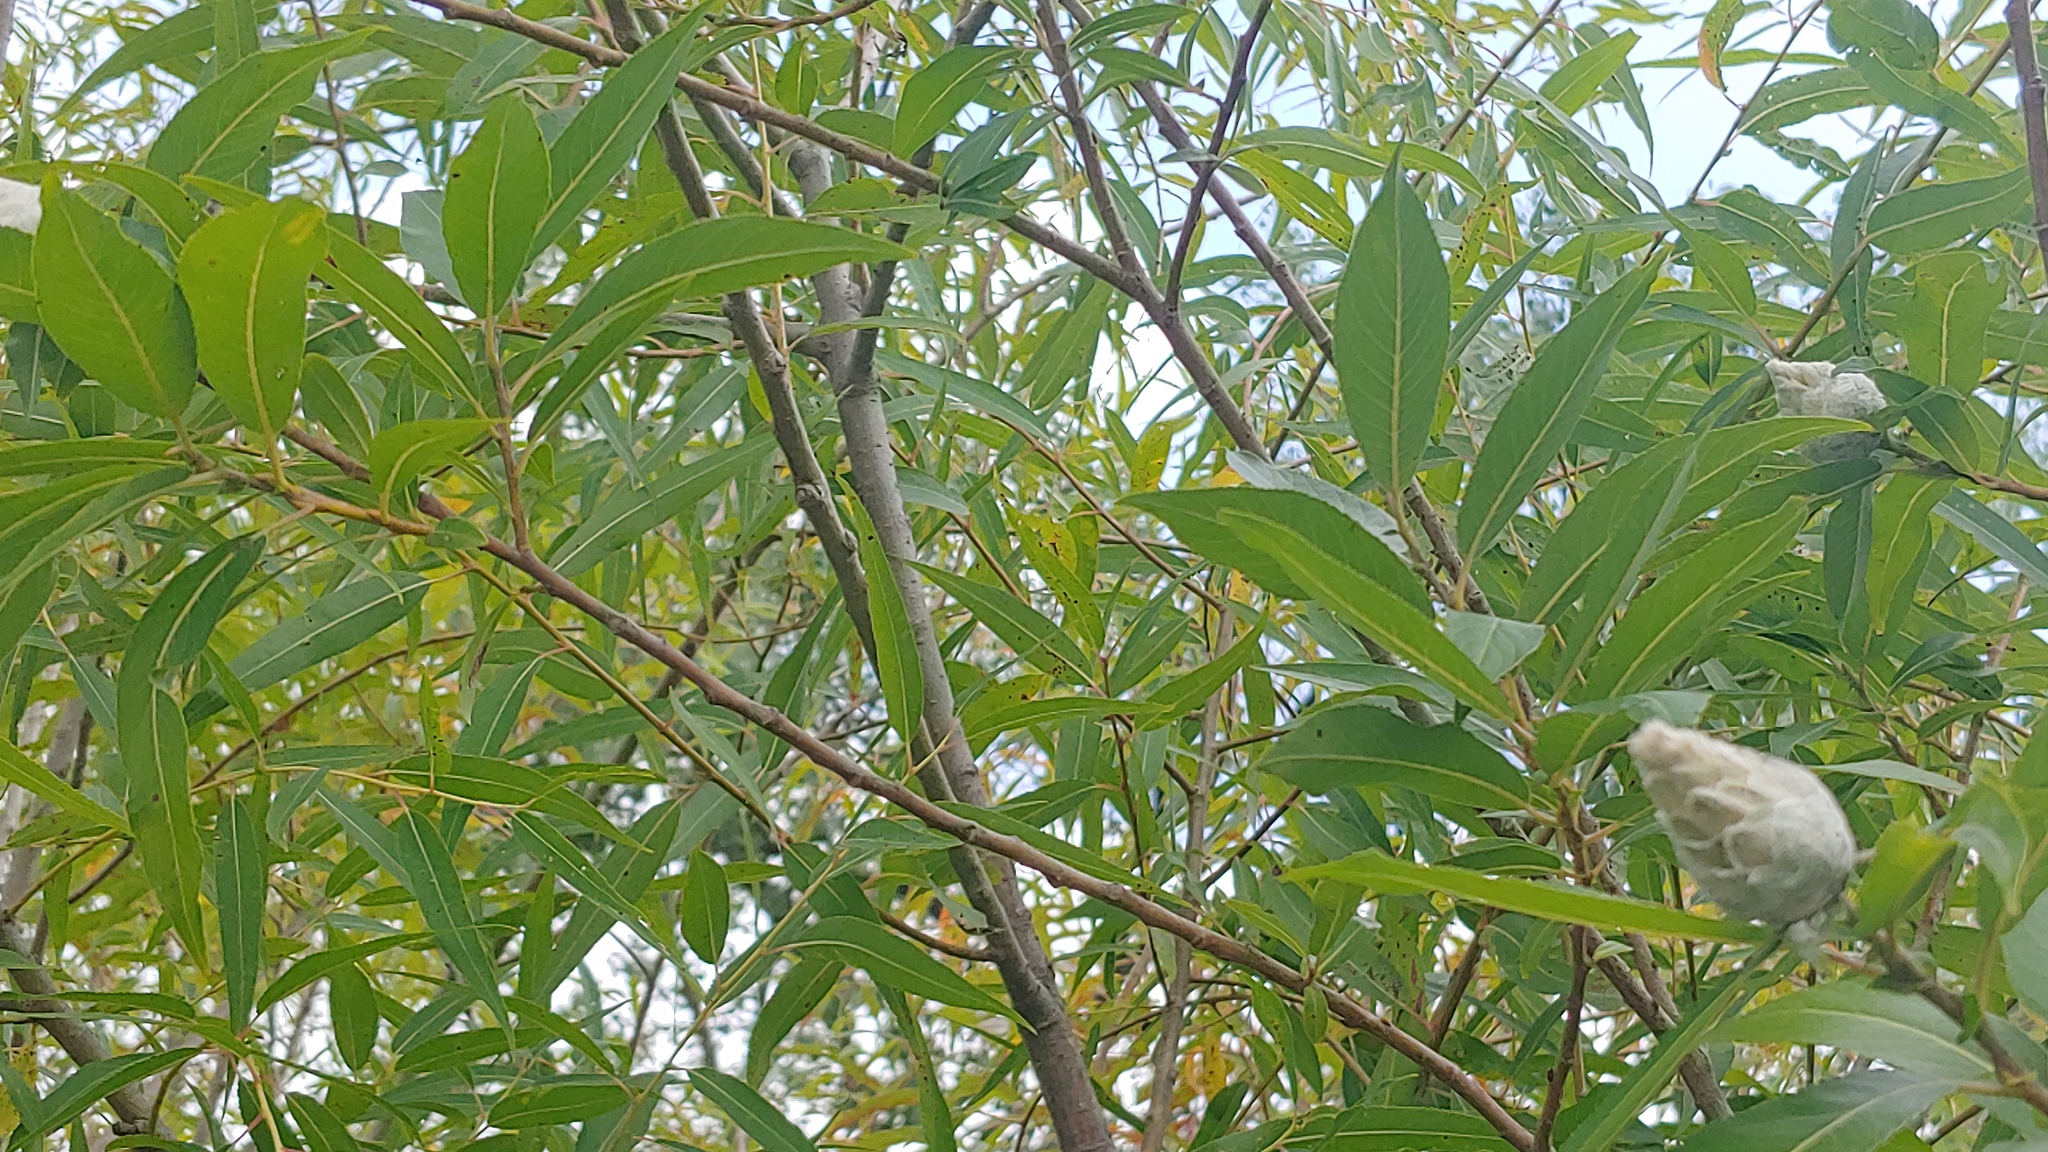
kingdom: Plantae
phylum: Tracheophyta
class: Magnoliopsida
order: Malpighiales
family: Salicaceae
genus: Salix
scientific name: Salix eriocephala
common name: Heart-leaved willow
